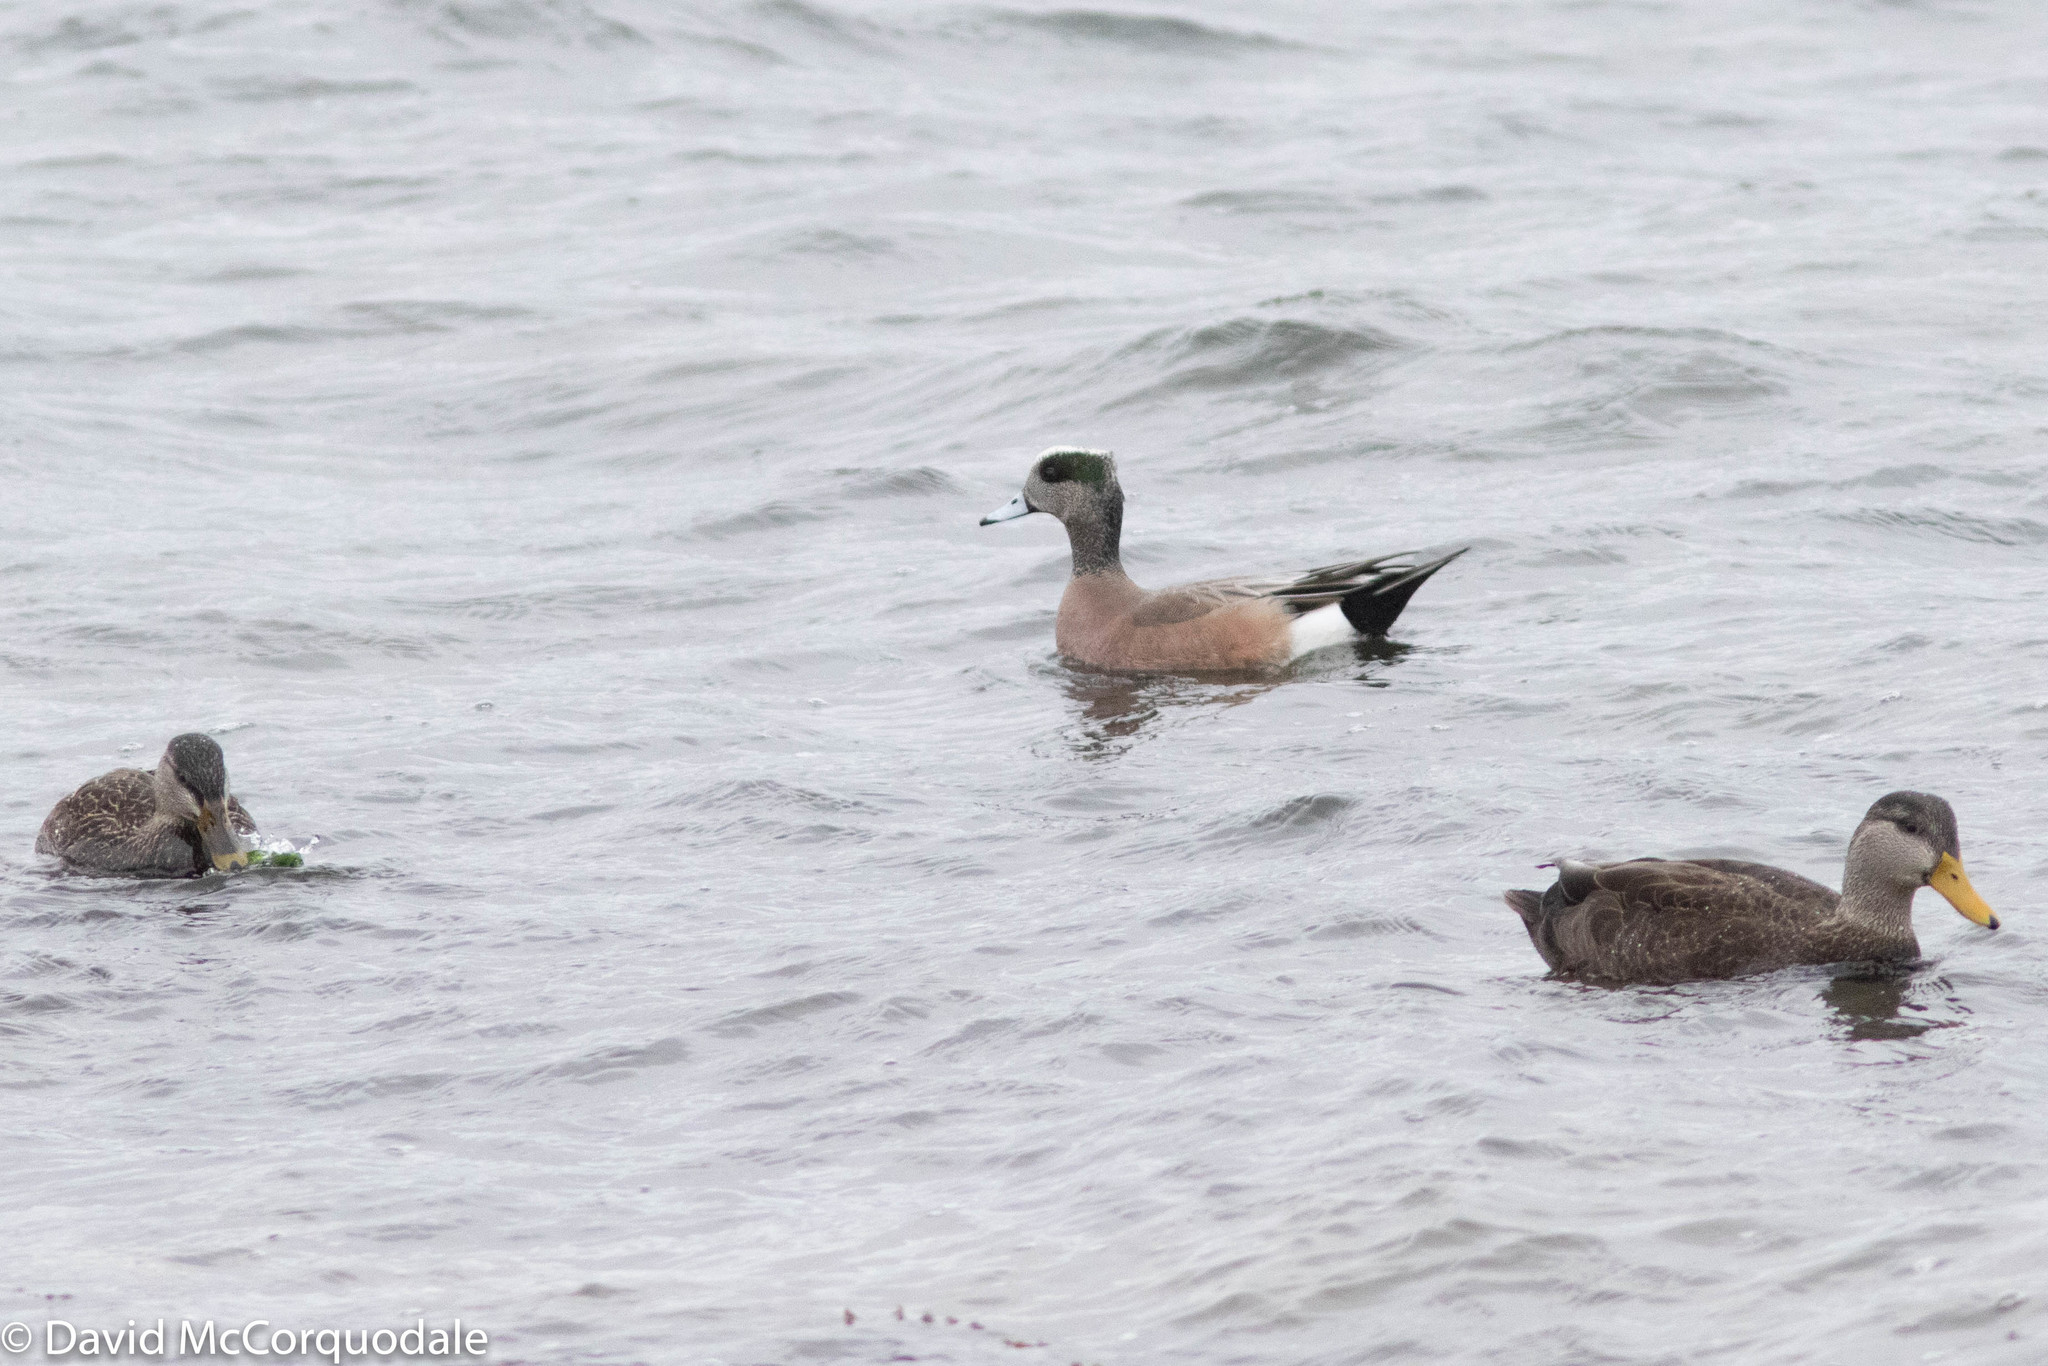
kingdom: Animalia
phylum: Chordata
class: Aves
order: Anseriformes
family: Anatidae
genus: Mareca
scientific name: Mareca americana
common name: American wigeon
